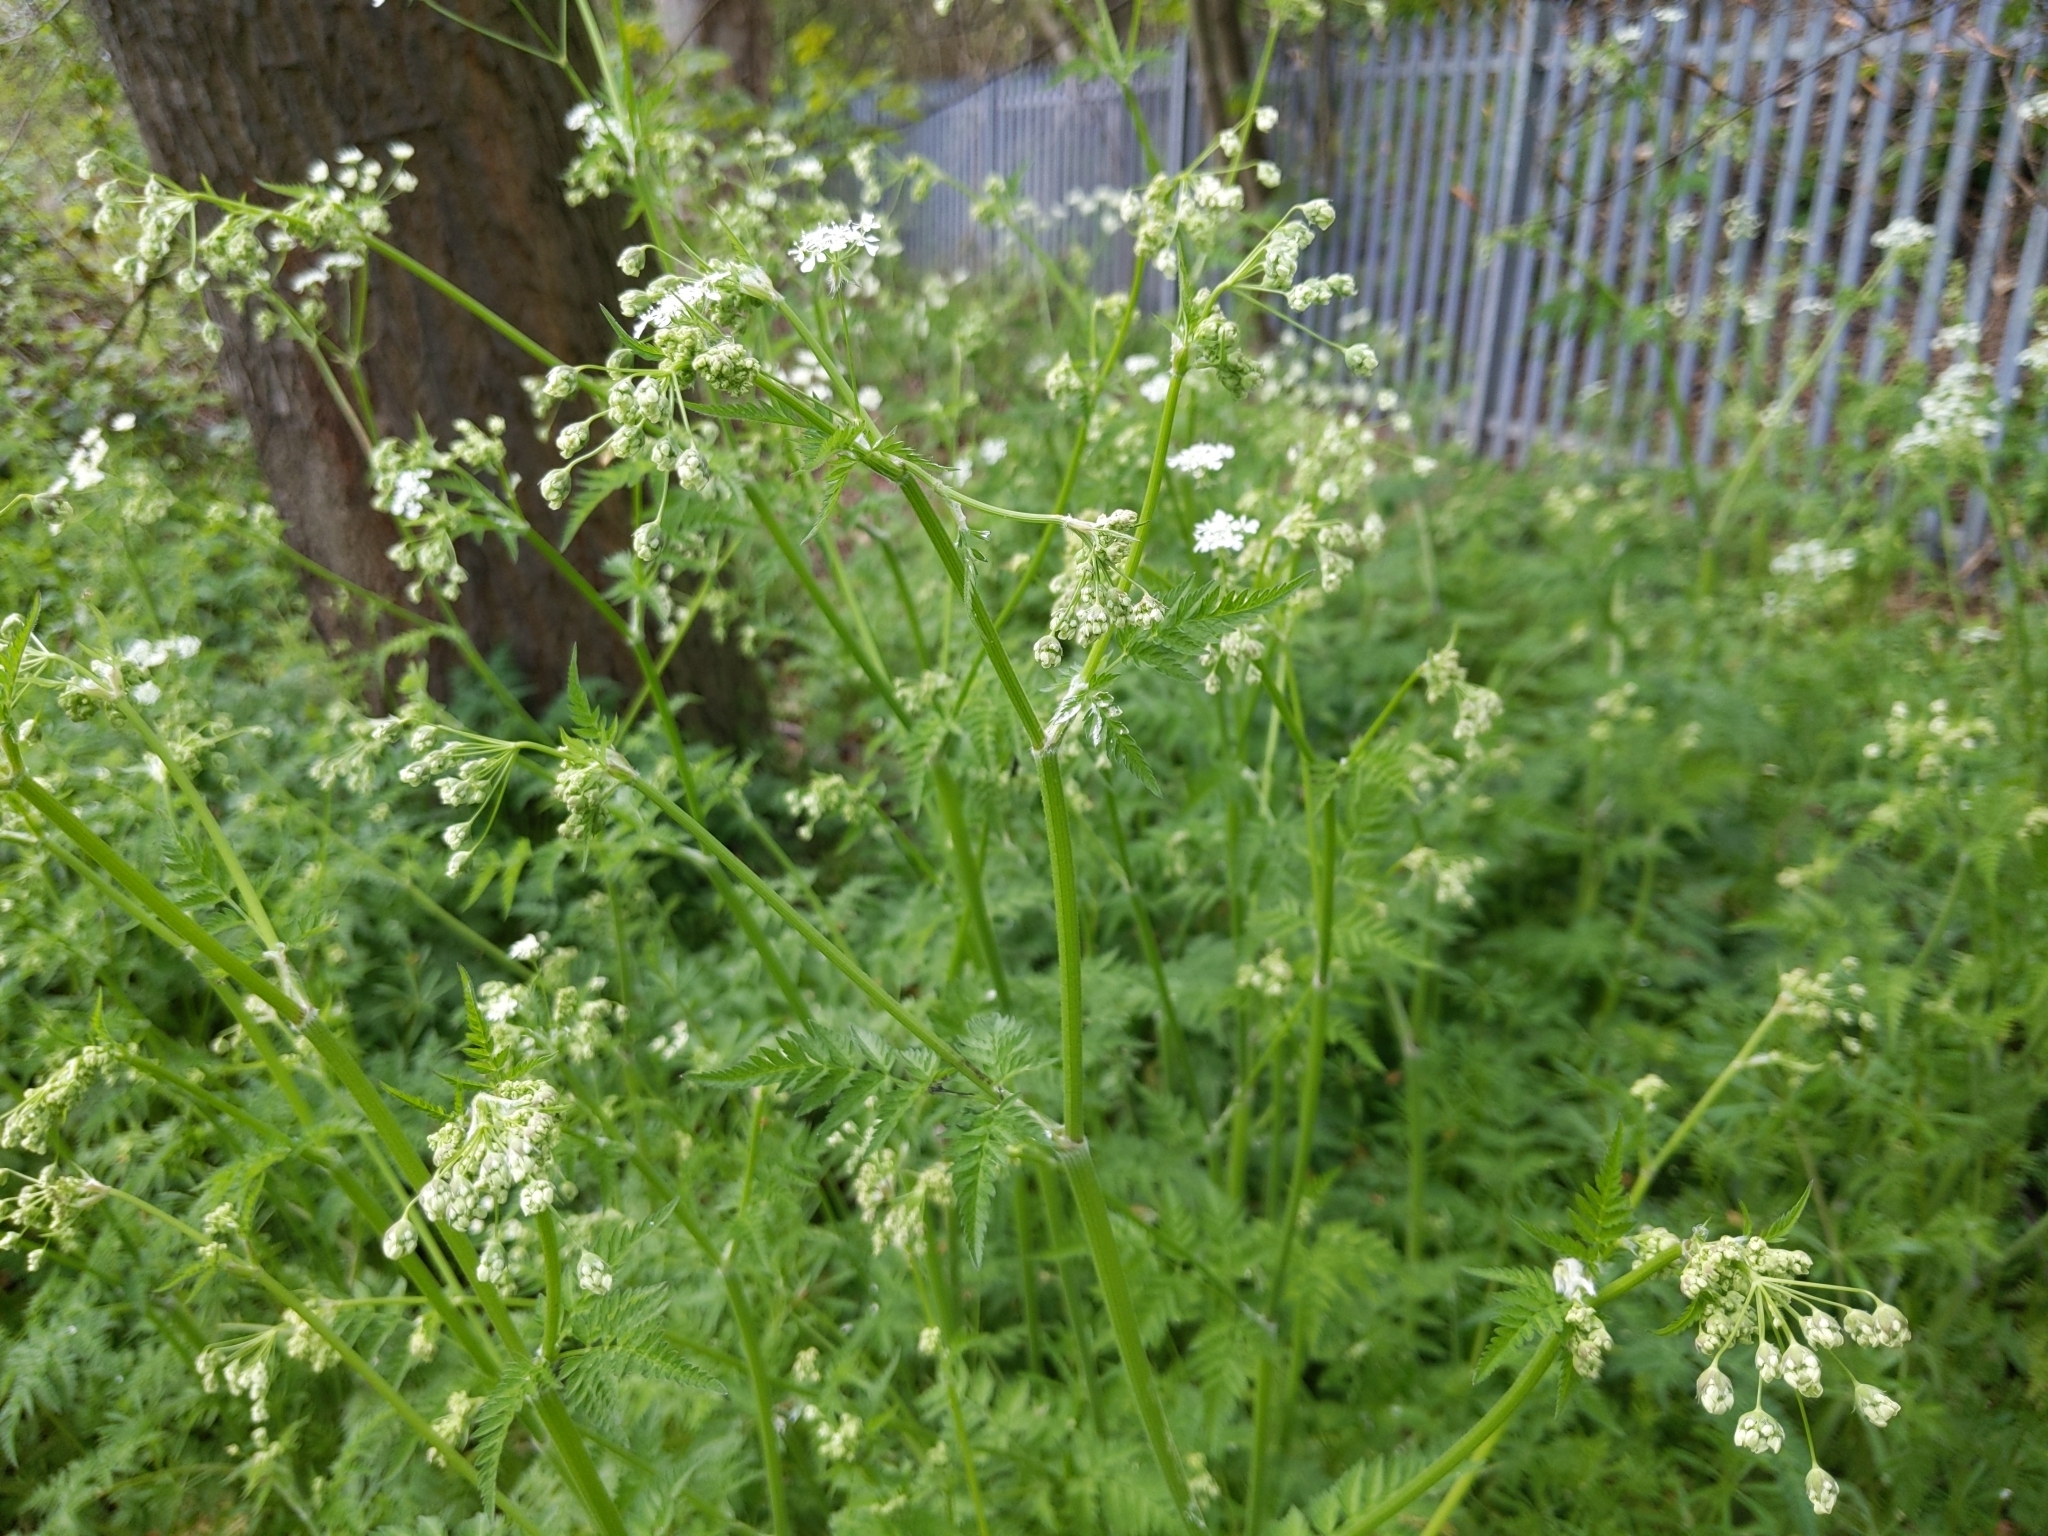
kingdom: Plantae
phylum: Tracheophyta
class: Magnoliopsida
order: Apiales
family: Apiaceae
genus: Anthriscus
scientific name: Anthriscus sylvestris
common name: Cow parsley
